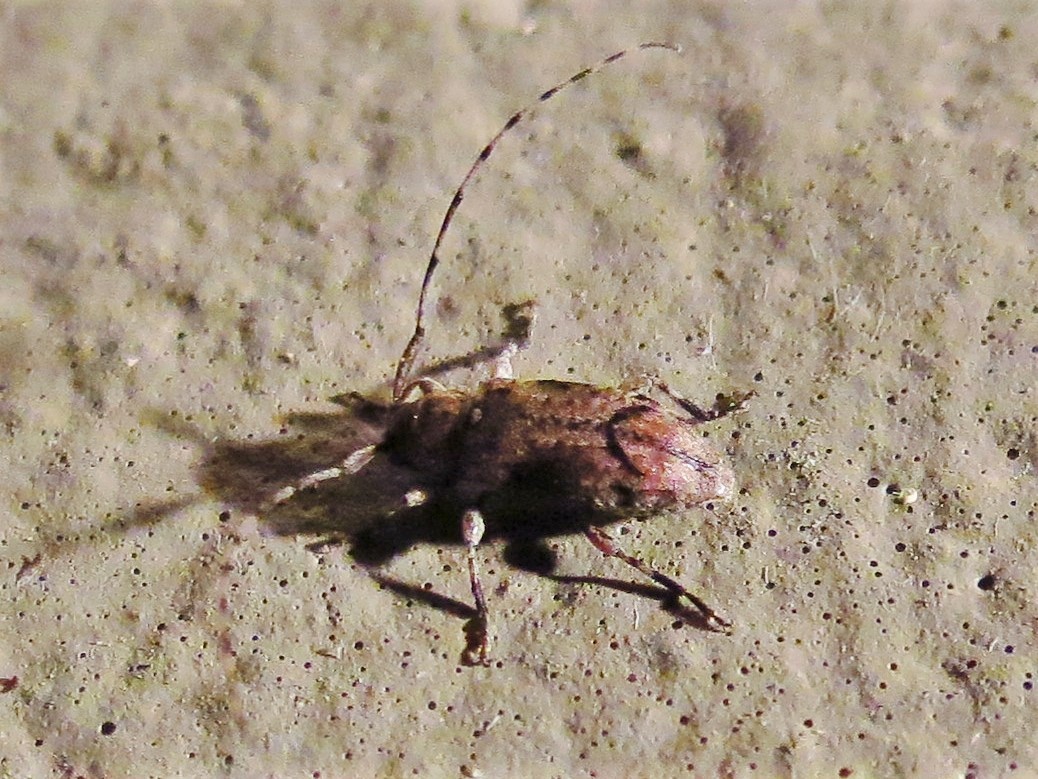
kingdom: Animalia
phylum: Arthropoda
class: Insecta
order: Coleoptera
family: Cerambycidae
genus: Sternidius
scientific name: Sternidius mimeticus
